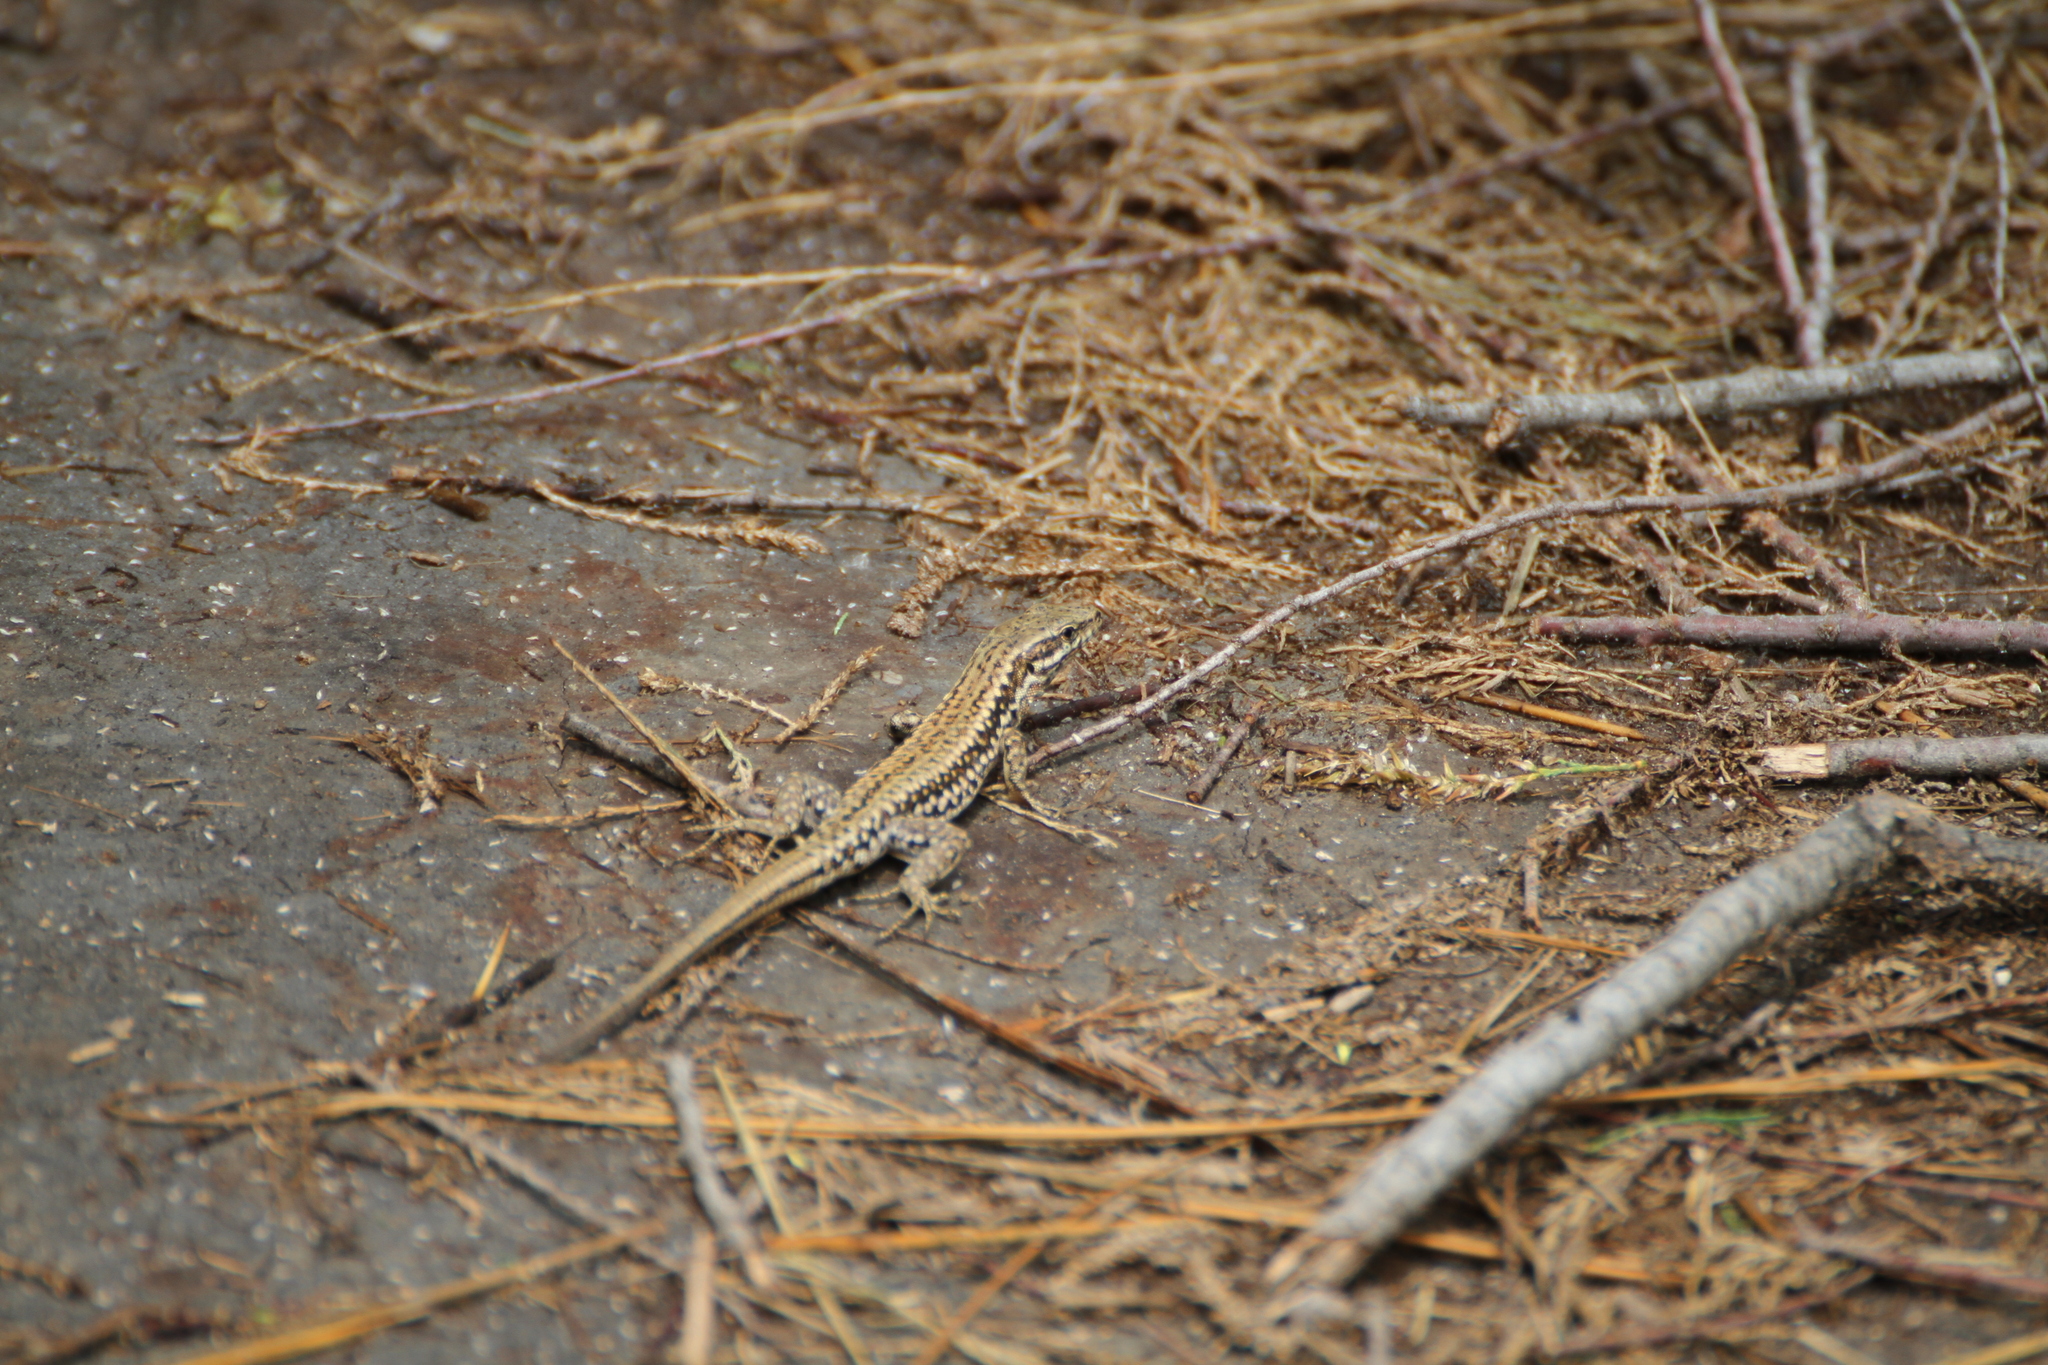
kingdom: Animalia
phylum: Chordata
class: Squamata
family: Lacertidae
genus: Podarcis
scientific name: Podarcis muralis
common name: Common wall lizard
